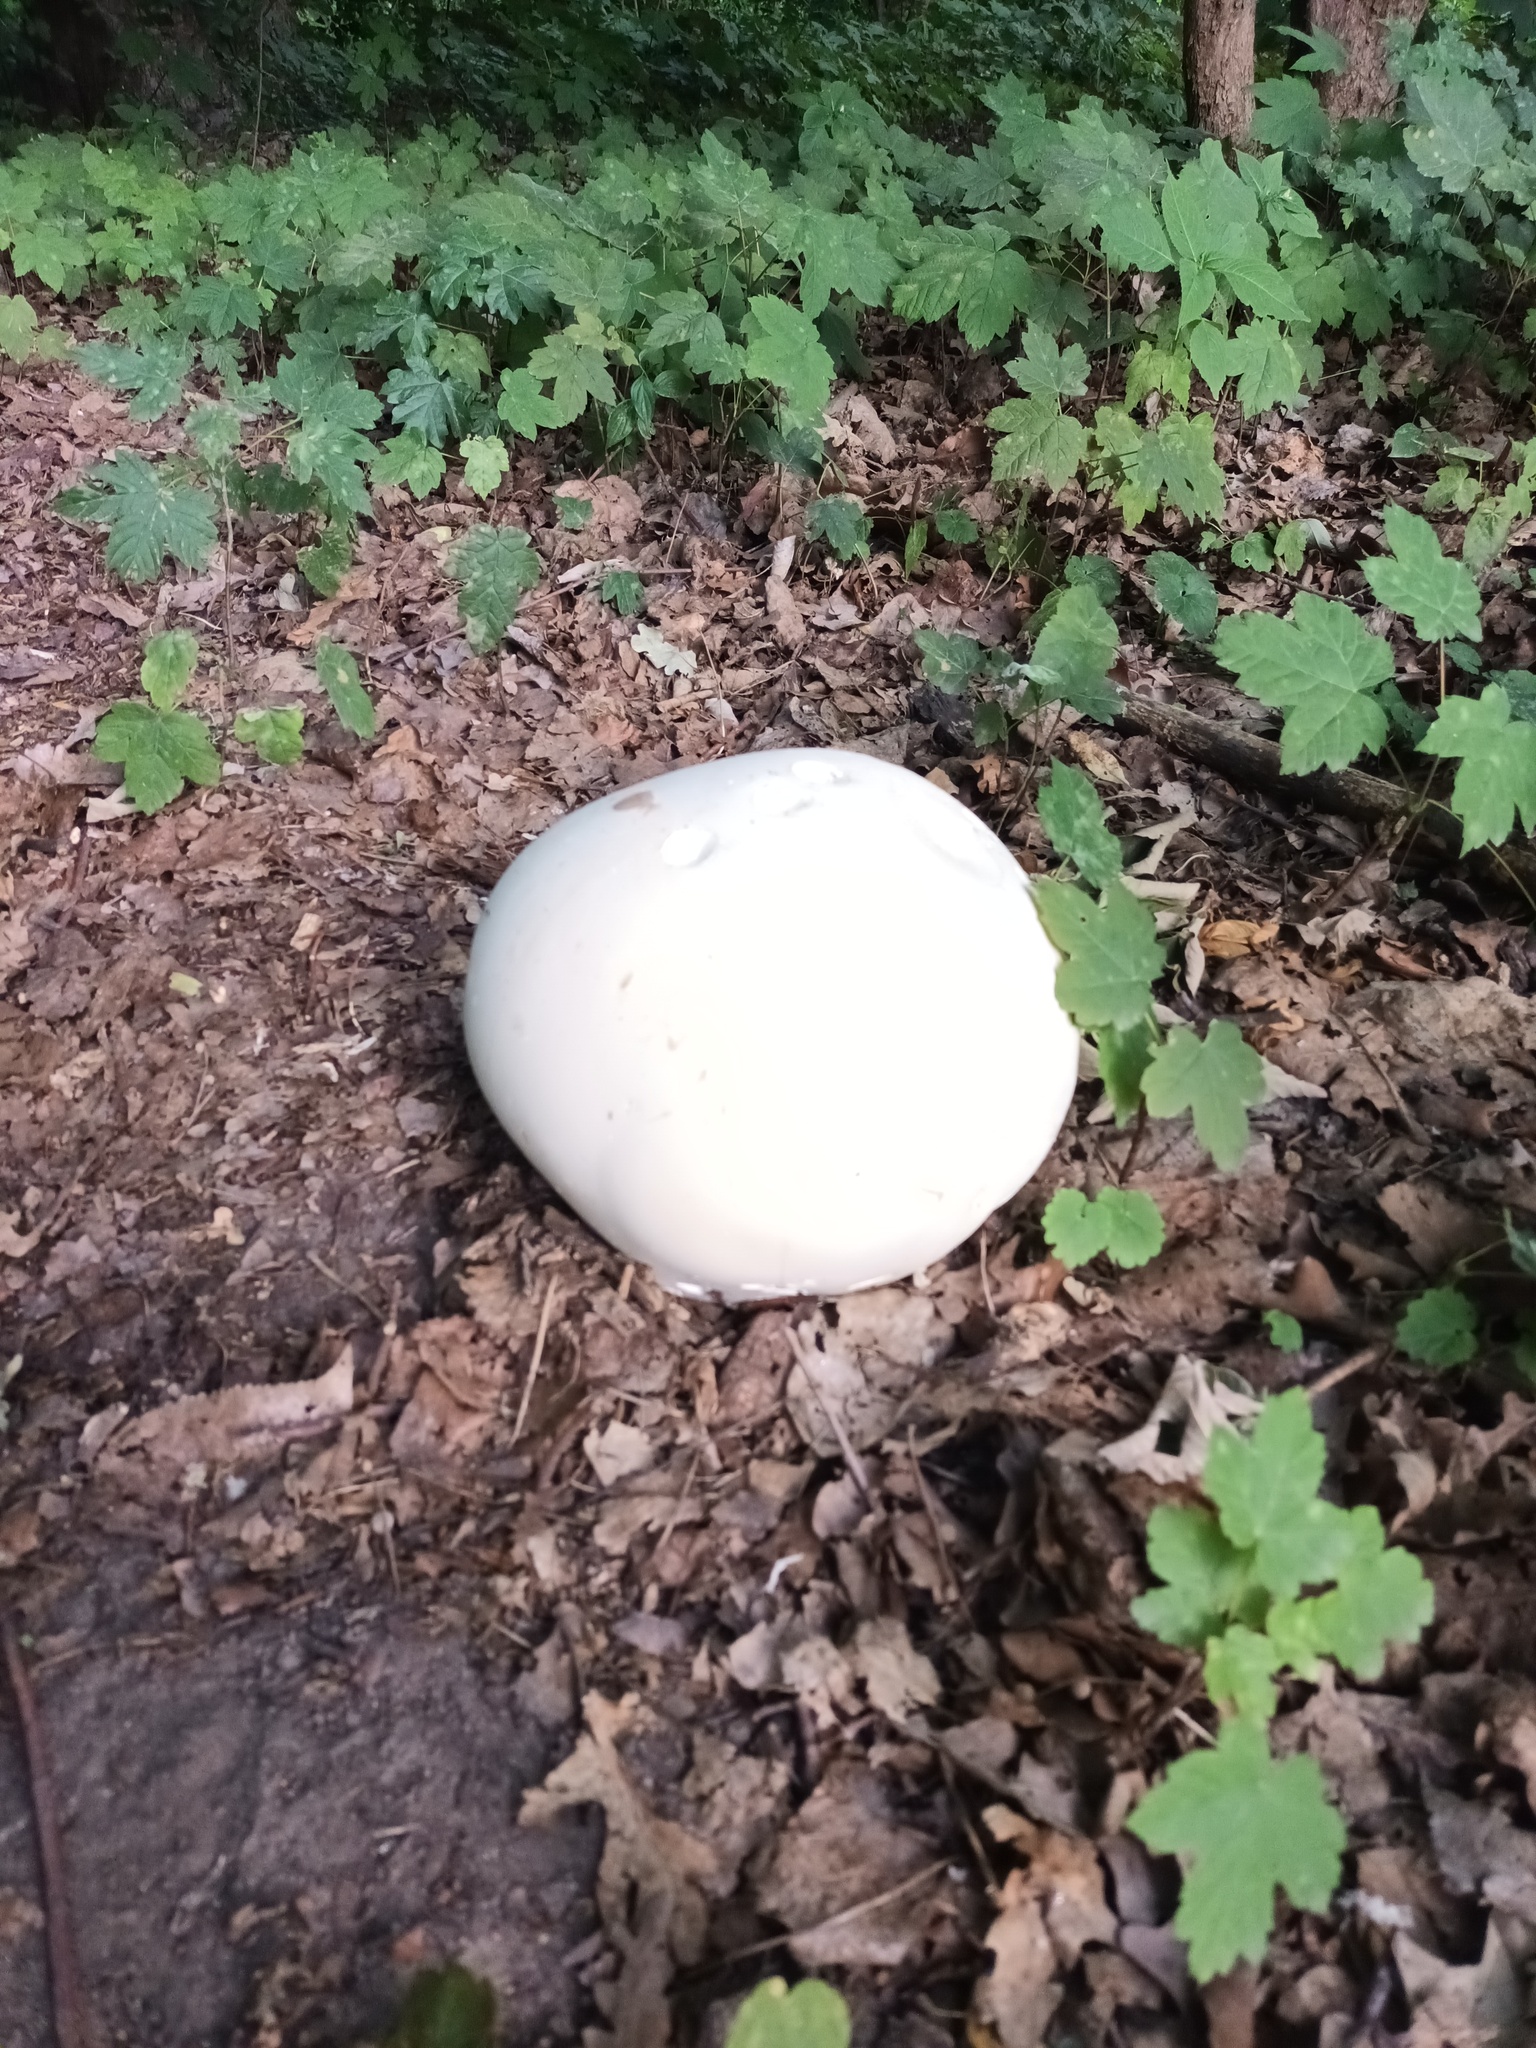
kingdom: Fungi
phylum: Basidiomycota
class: Agaricomycetes
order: Agaricales
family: Lycoperdaceae
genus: Calvatia
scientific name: Calvatia gigantea
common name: Giant puffball
